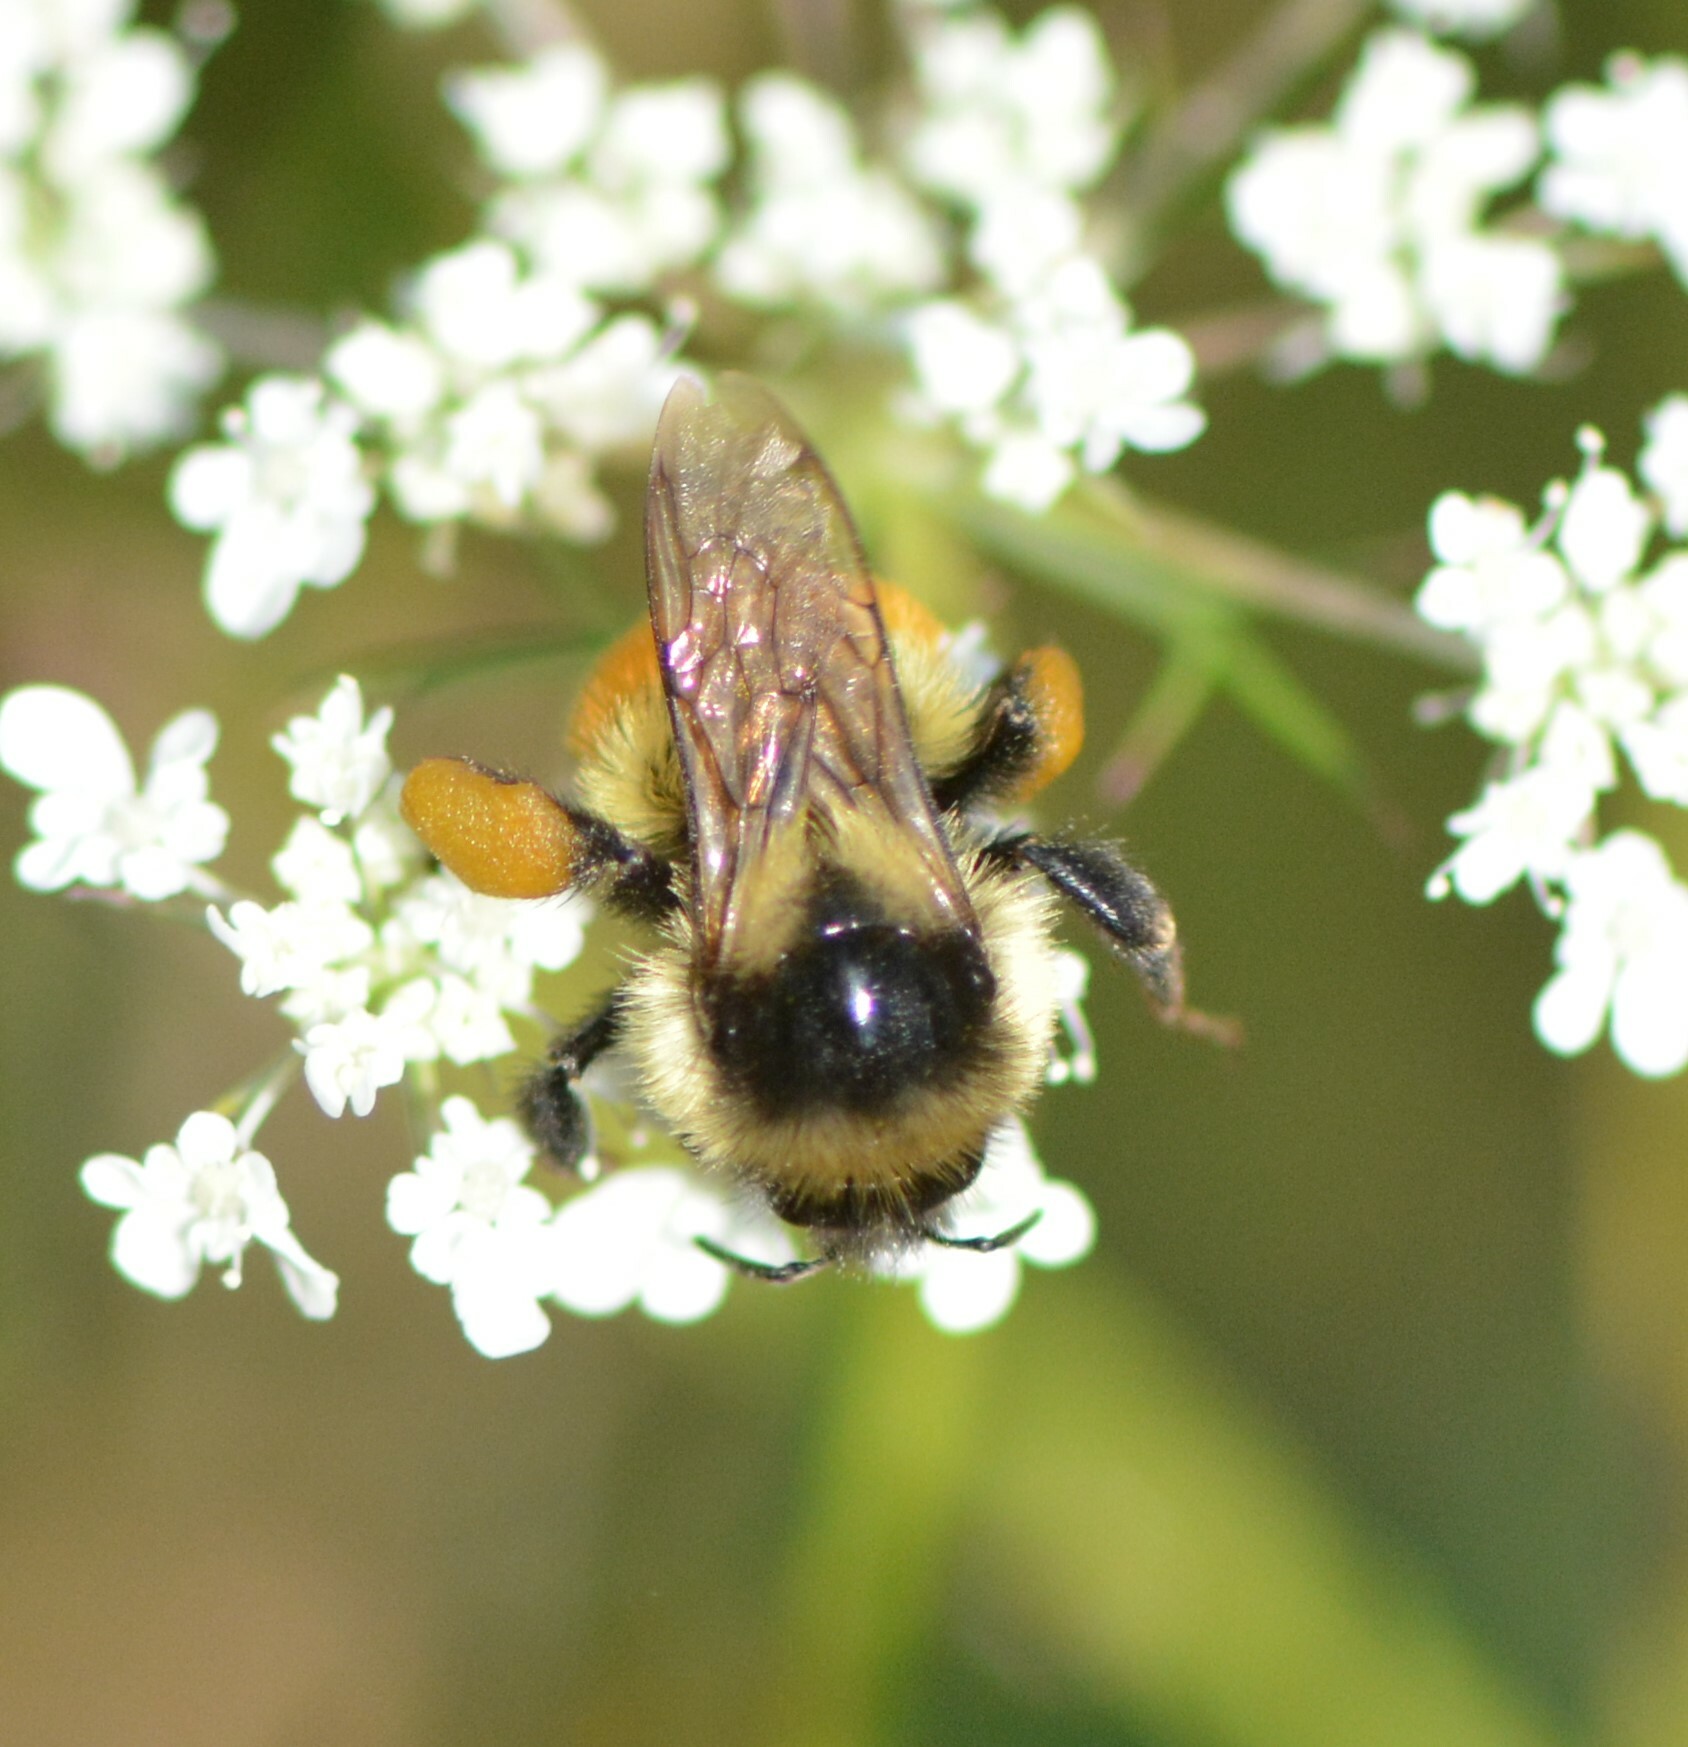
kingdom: Animalia
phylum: Arthropoda
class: Insecta
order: Hymenoptera
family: Apidae
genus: Bombus
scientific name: Bombus ternarius
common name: Tri-colored bumble bee
